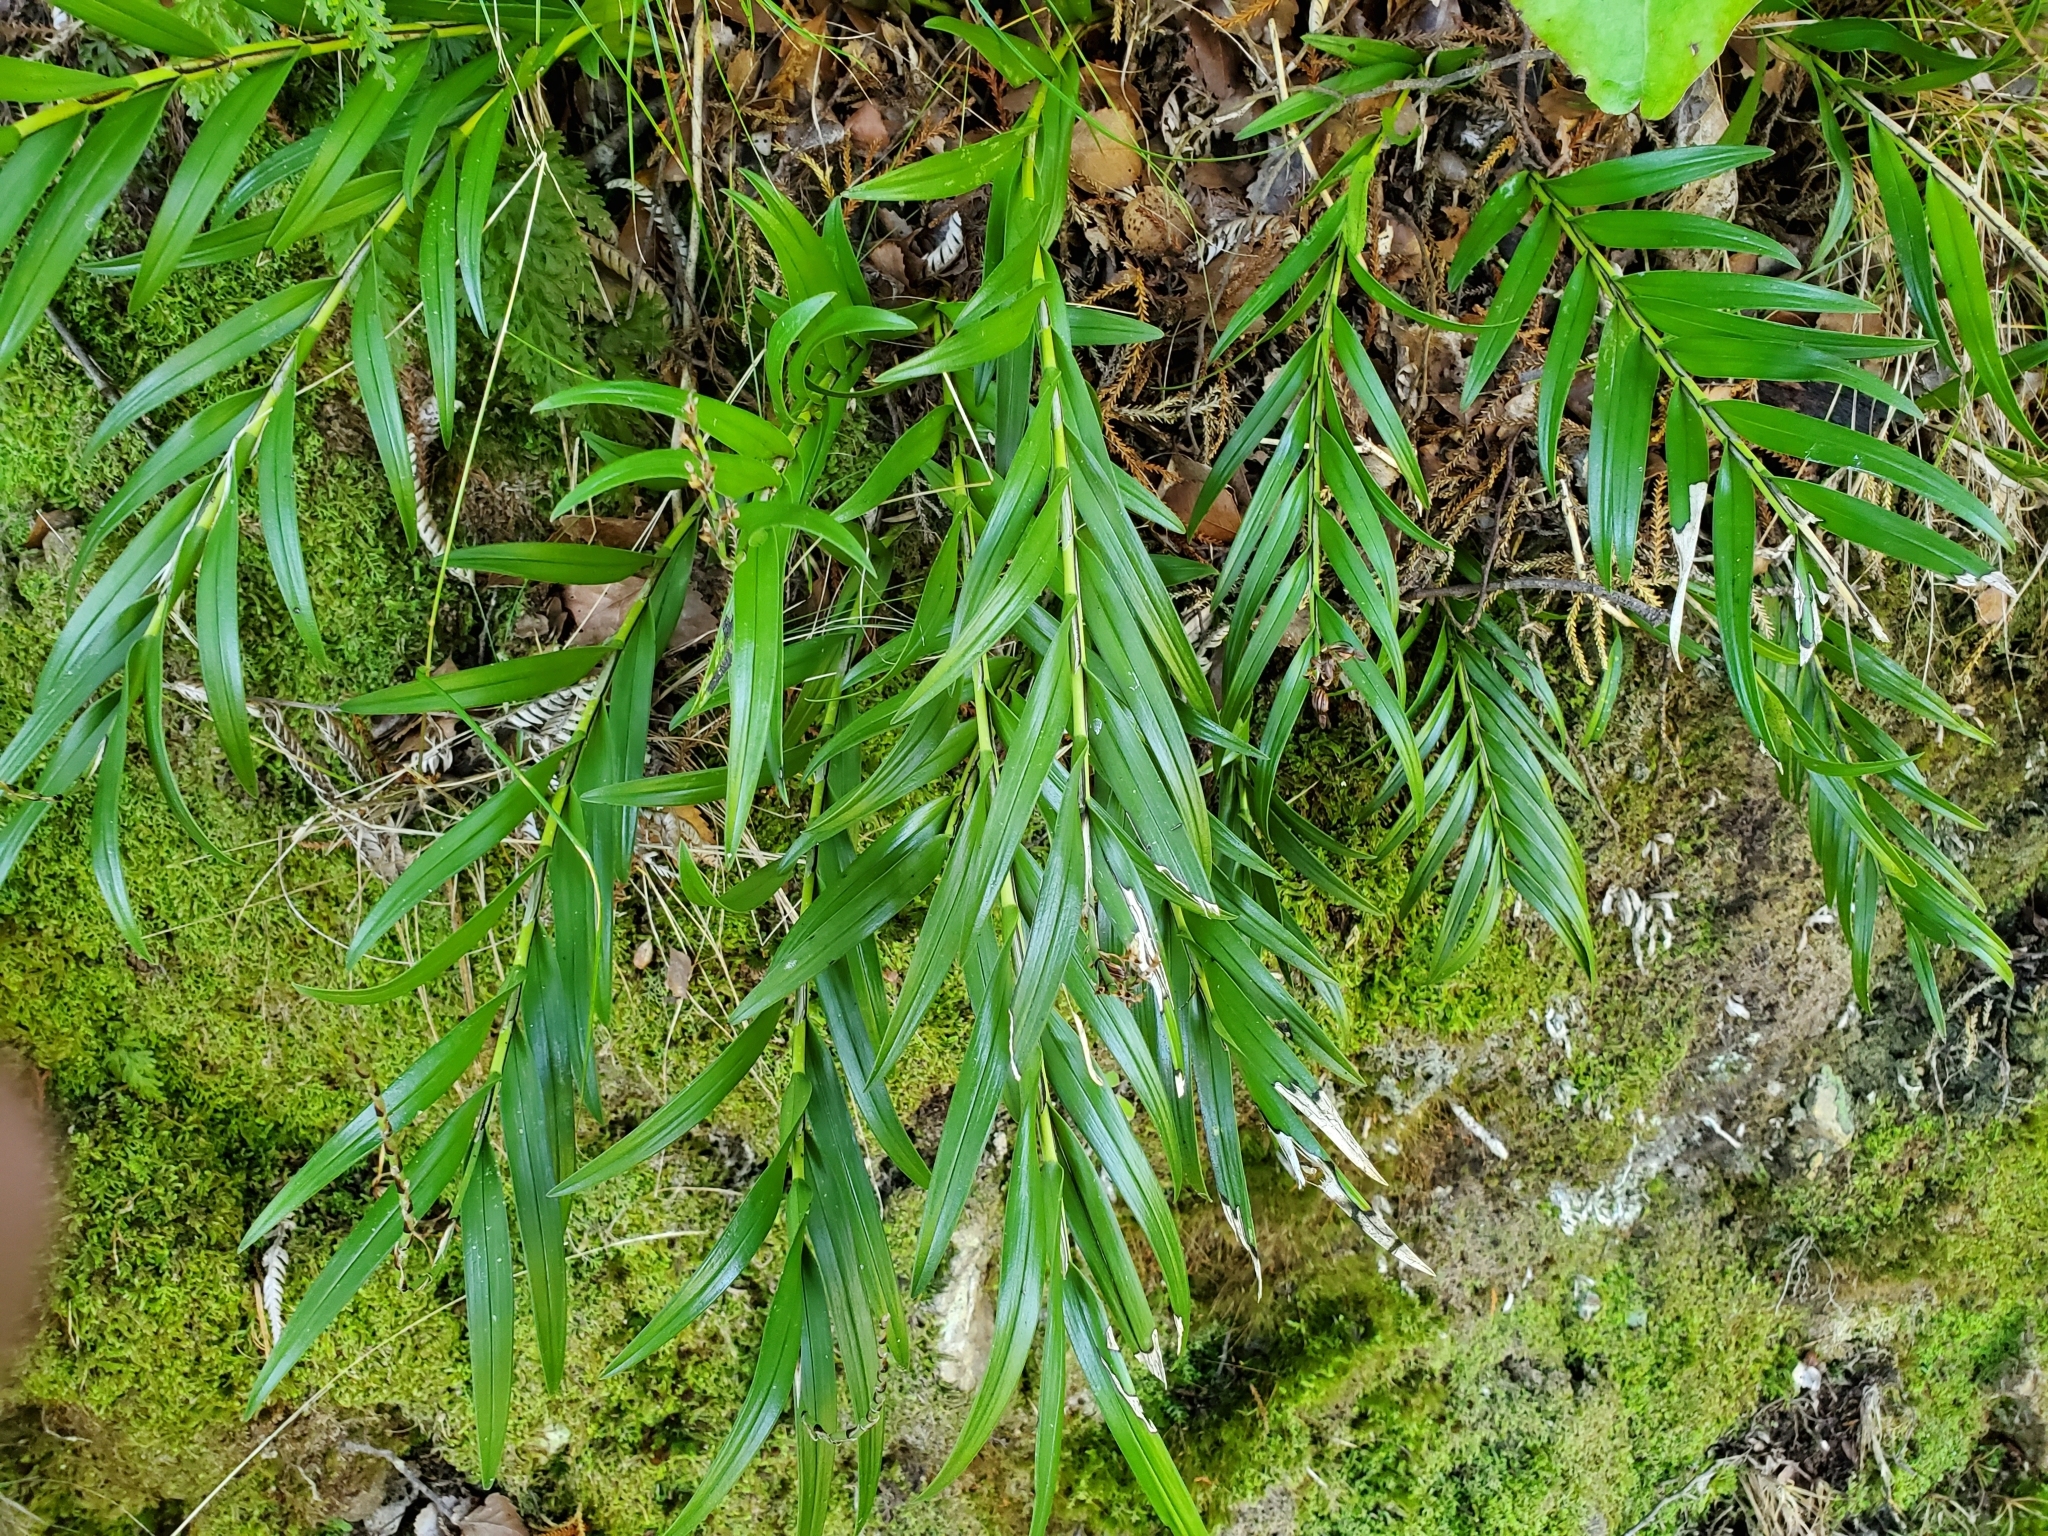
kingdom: Plantae
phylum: Tracheophyta
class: Liliopsida
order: Asparagales
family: Orchidaceae
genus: Earina
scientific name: Earina autumnalis
